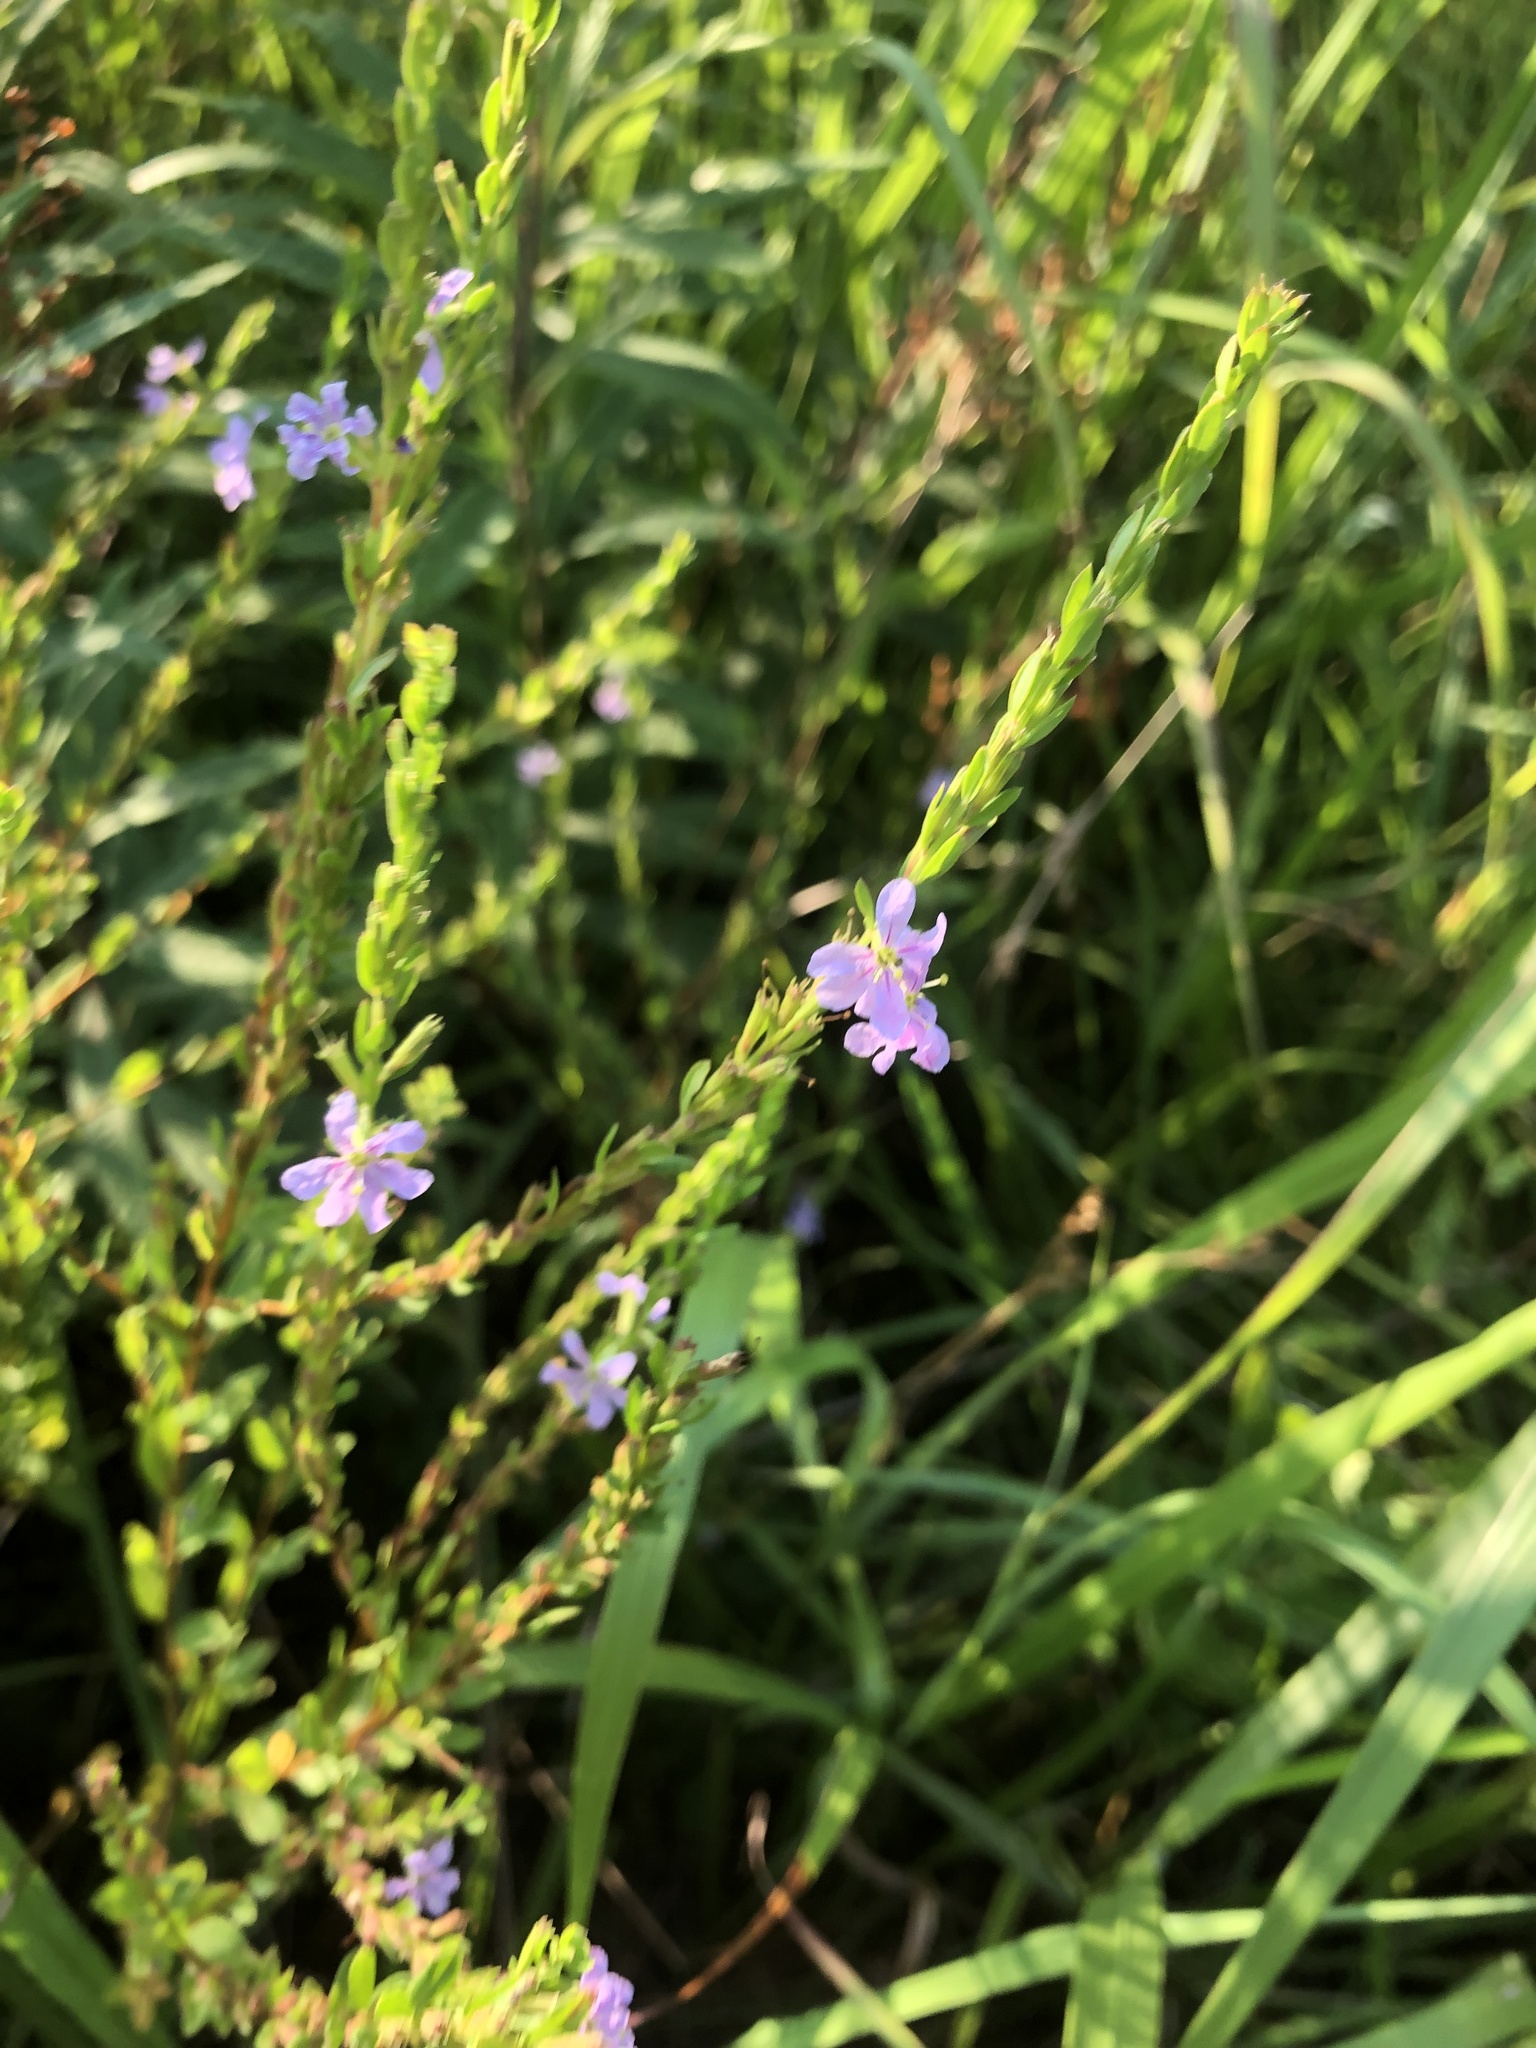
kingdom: Plantae
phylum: Tracheophyta
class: Magnoliopsida
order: Myrtales
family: Lythraceae
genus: Lythrum
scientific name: Lythrum alatum
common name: Winged loosestrife
